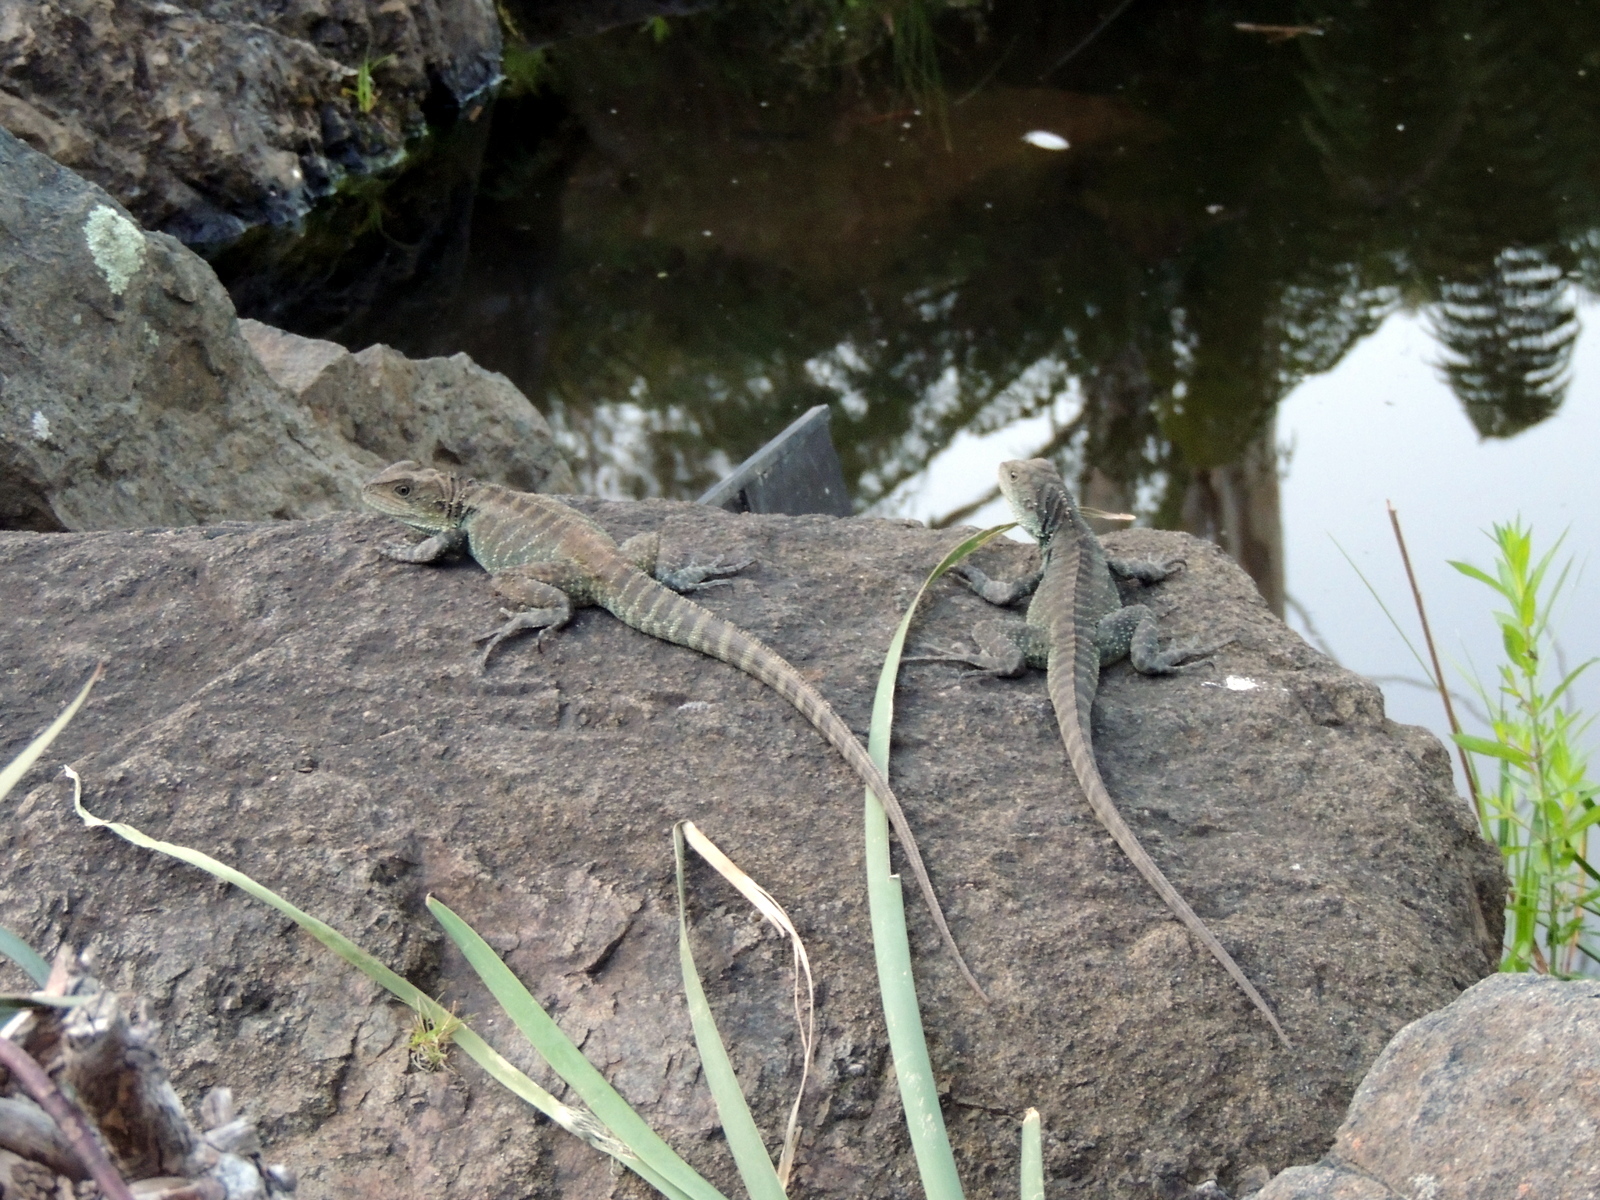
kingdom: Animalia
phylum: Chordata
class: Squamata
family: Agamidae
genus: Intellagama
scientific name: Intellagama lesueurii
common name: Eastern water dragon
